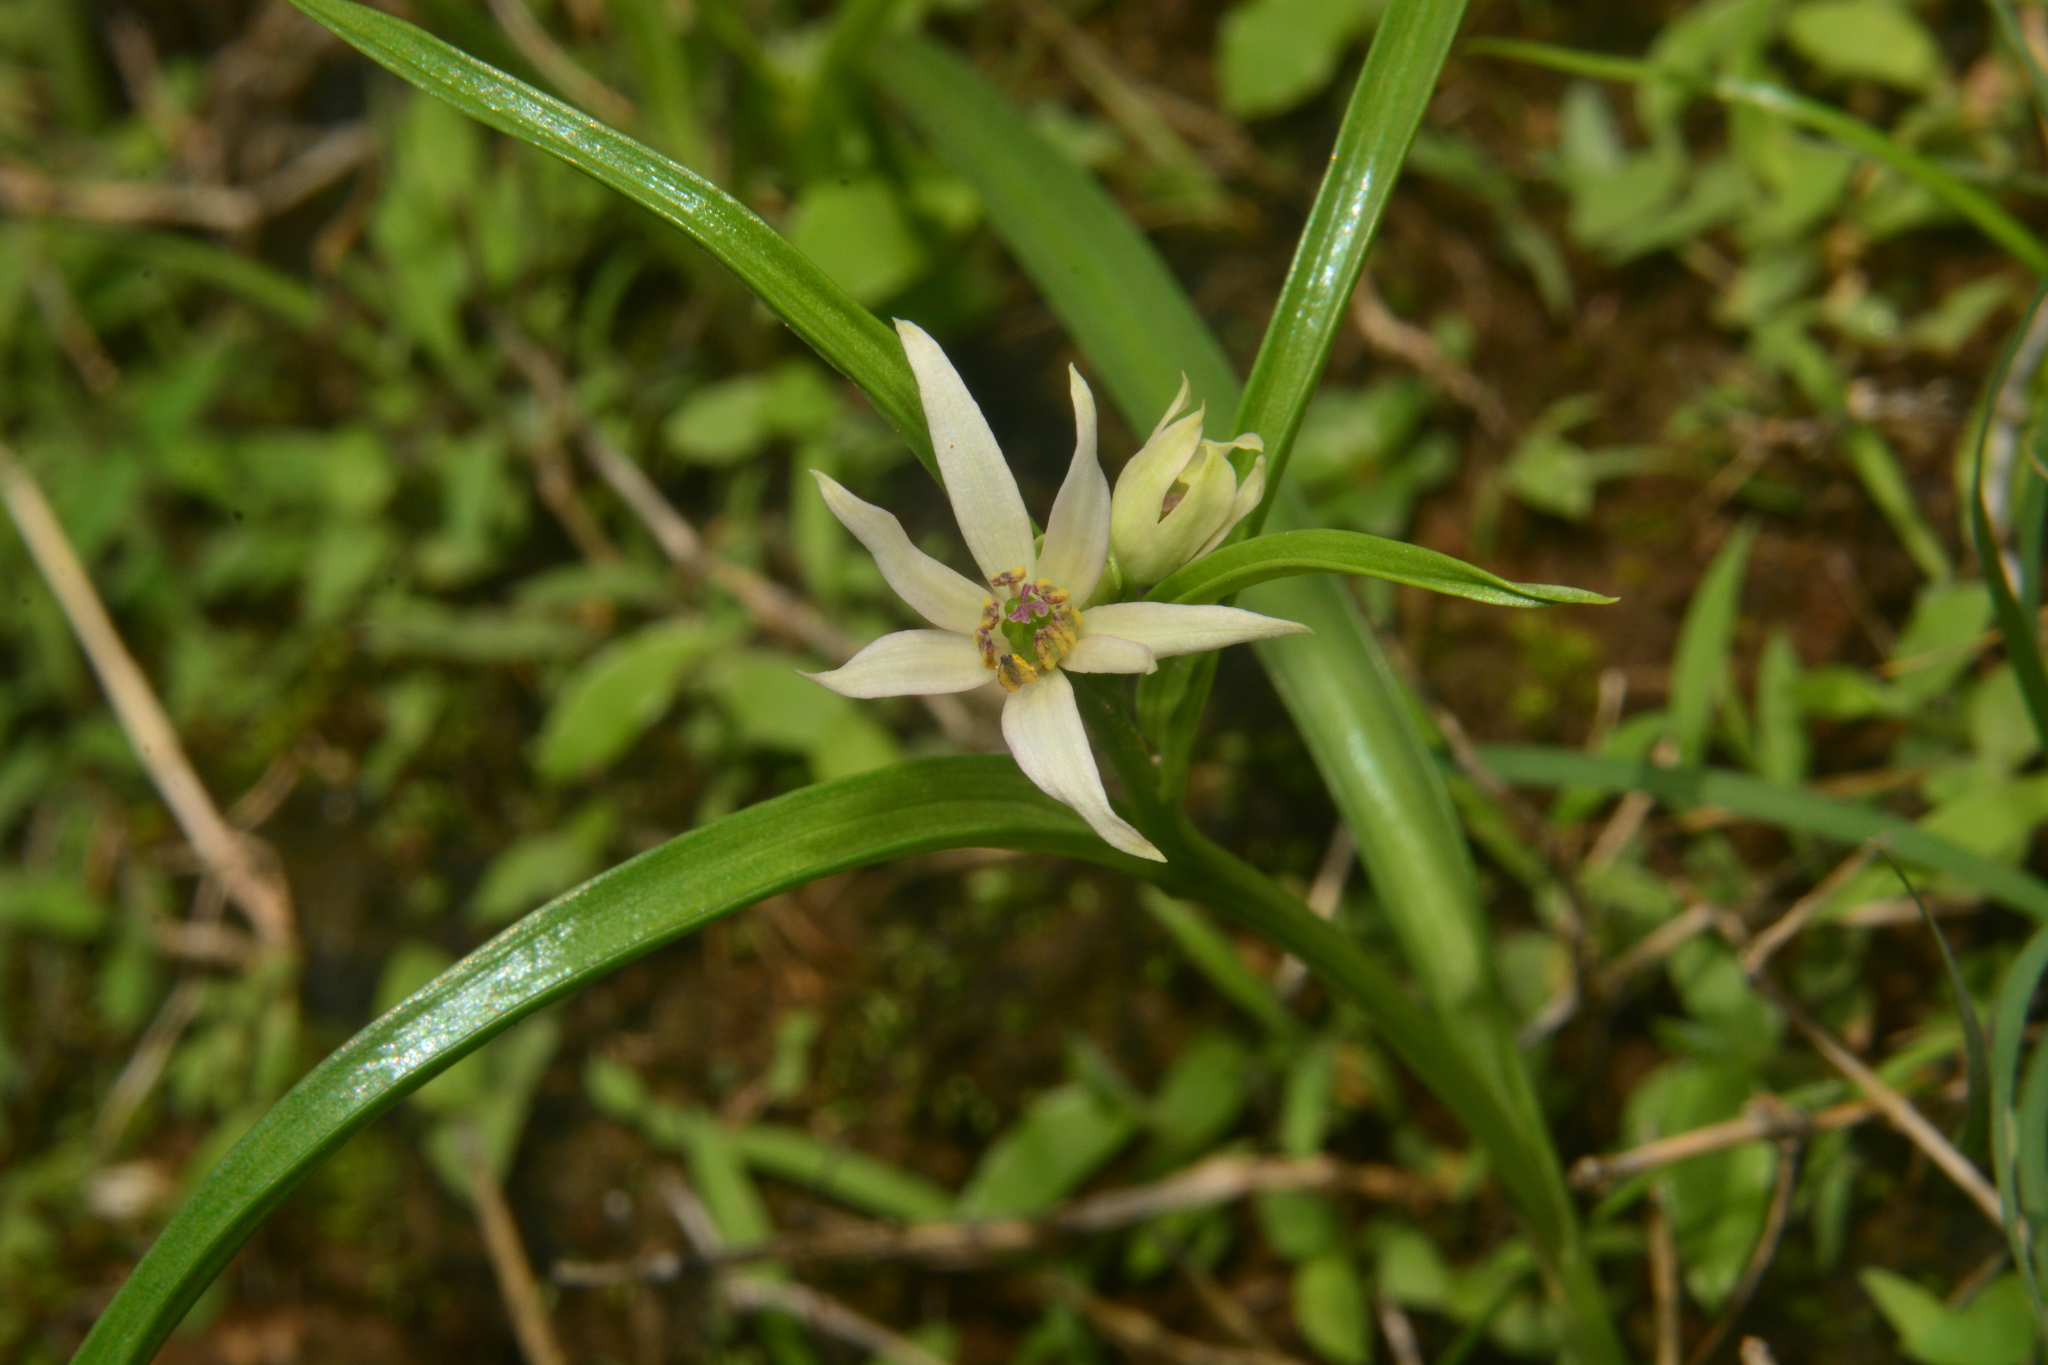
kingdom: Plantae
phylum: Tracheophyta
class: Liliopsida
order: Liliales
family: Colchicaceae
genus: Iphigenia
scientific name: Iphigenia pallida
